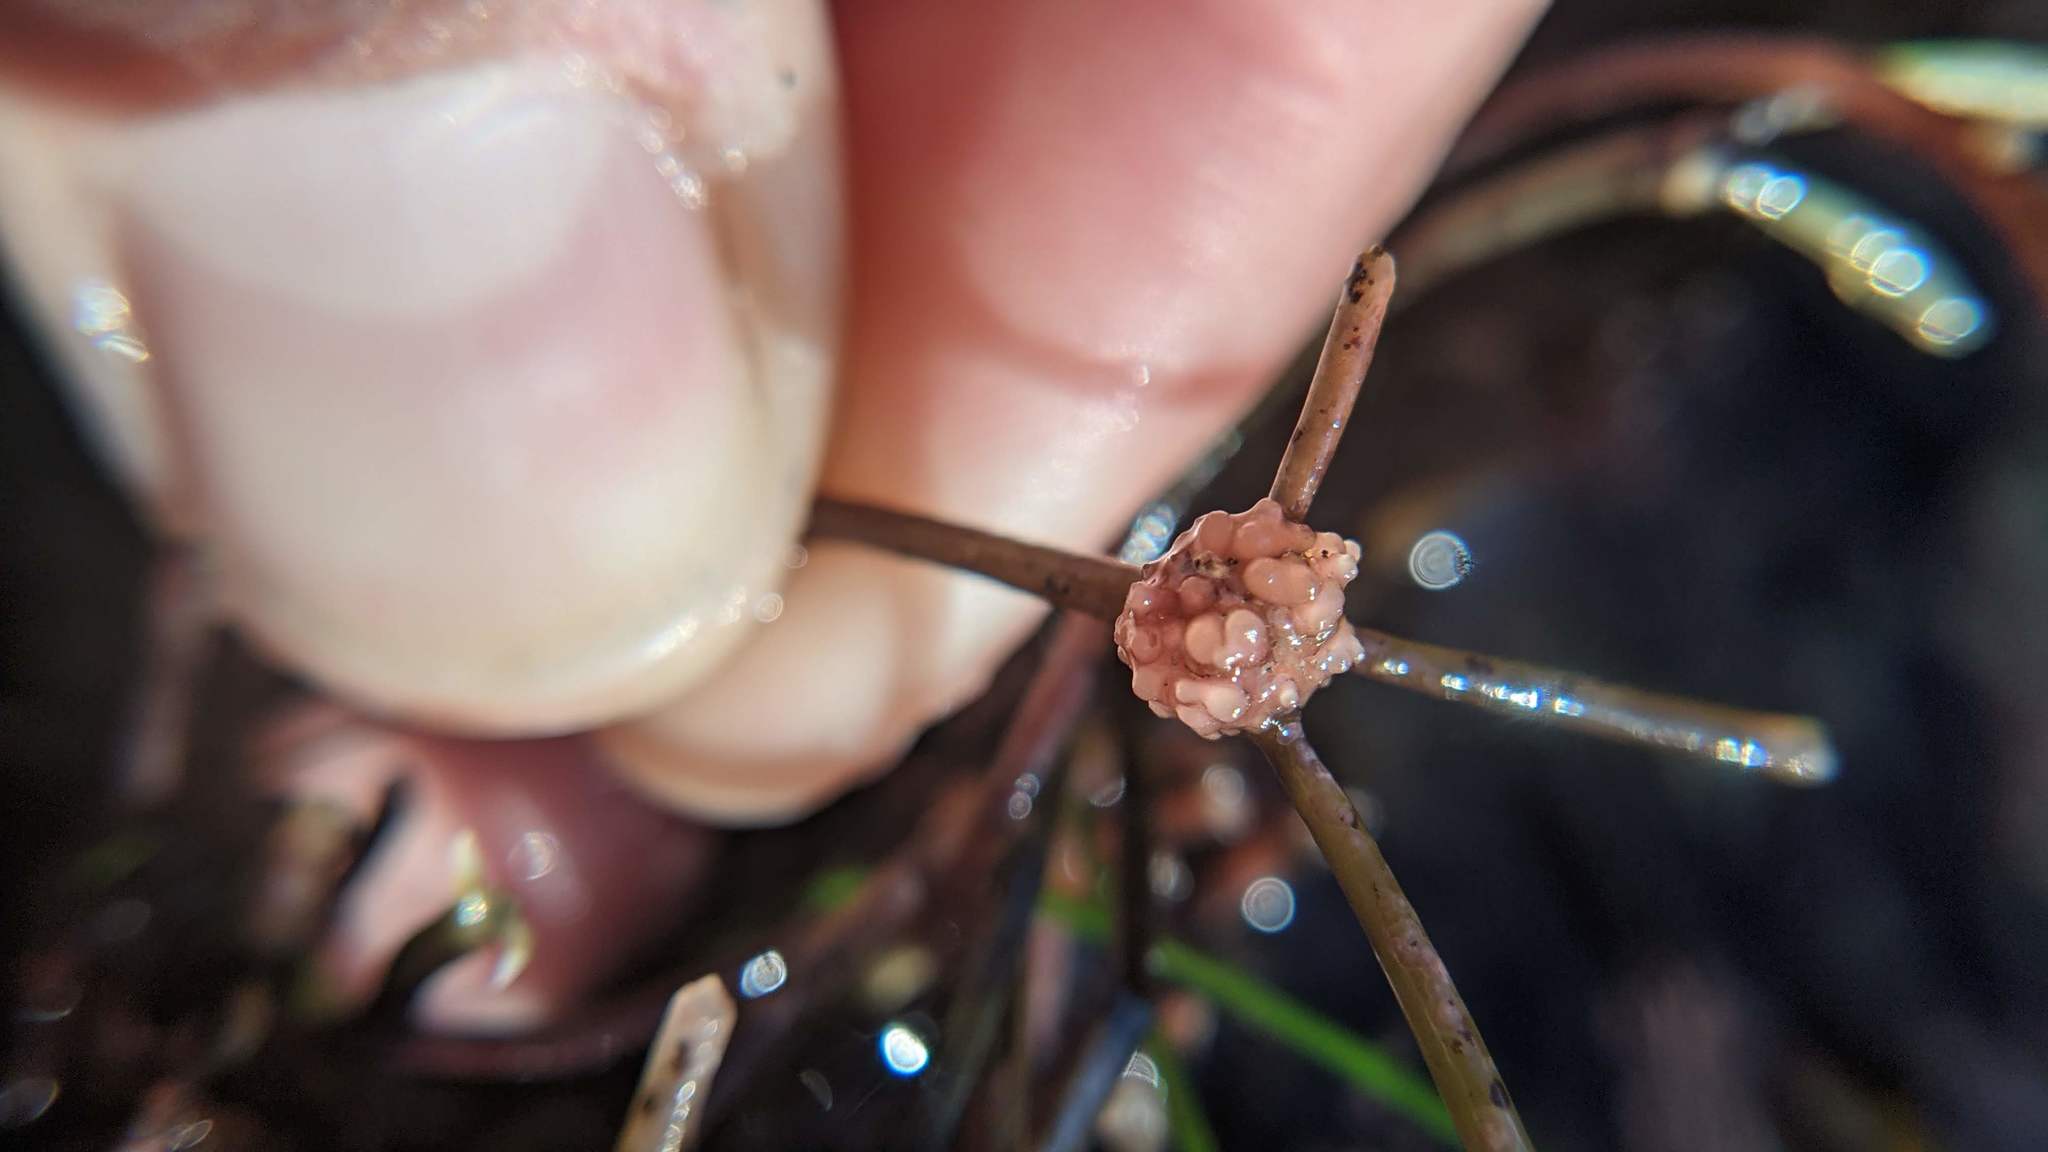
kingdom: Plantae
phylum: Rhodophyta
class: Florideophyceae
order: Ceramiales
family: Rhodomelaceae
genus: Janczewskia
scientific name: Janczewskia gardneri
